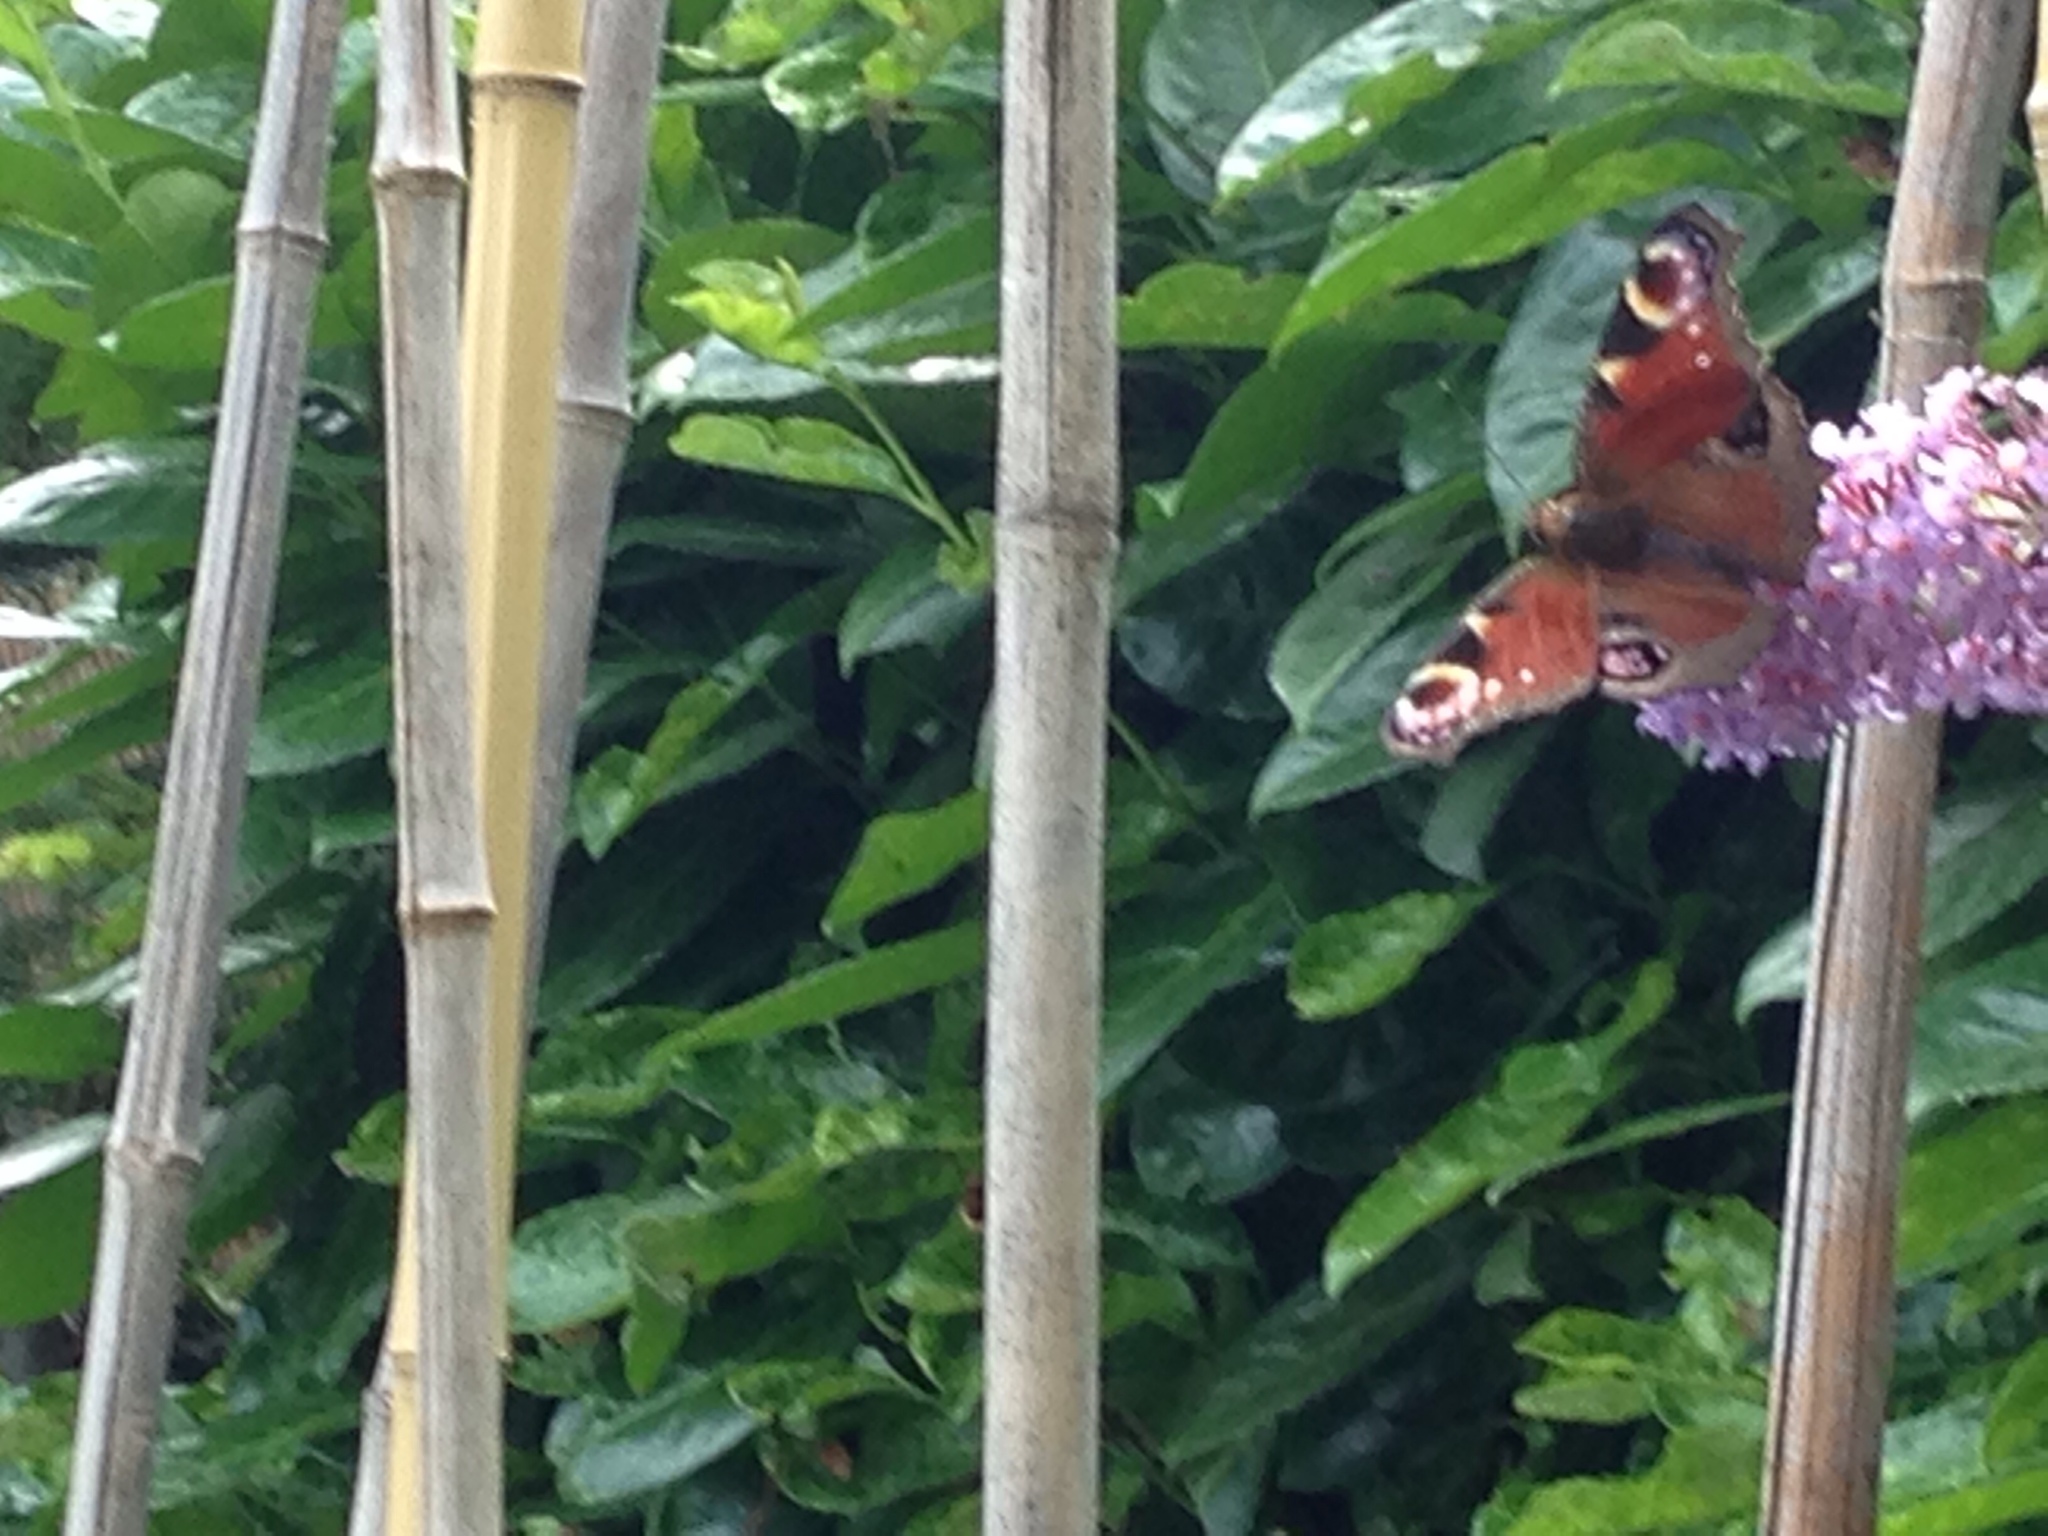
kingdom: Animalia
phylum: Arthropoda
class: Insecta
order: Lepidoptera
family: Nymphalidae
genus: Aglais
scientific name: Aglais io
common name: Peacock
